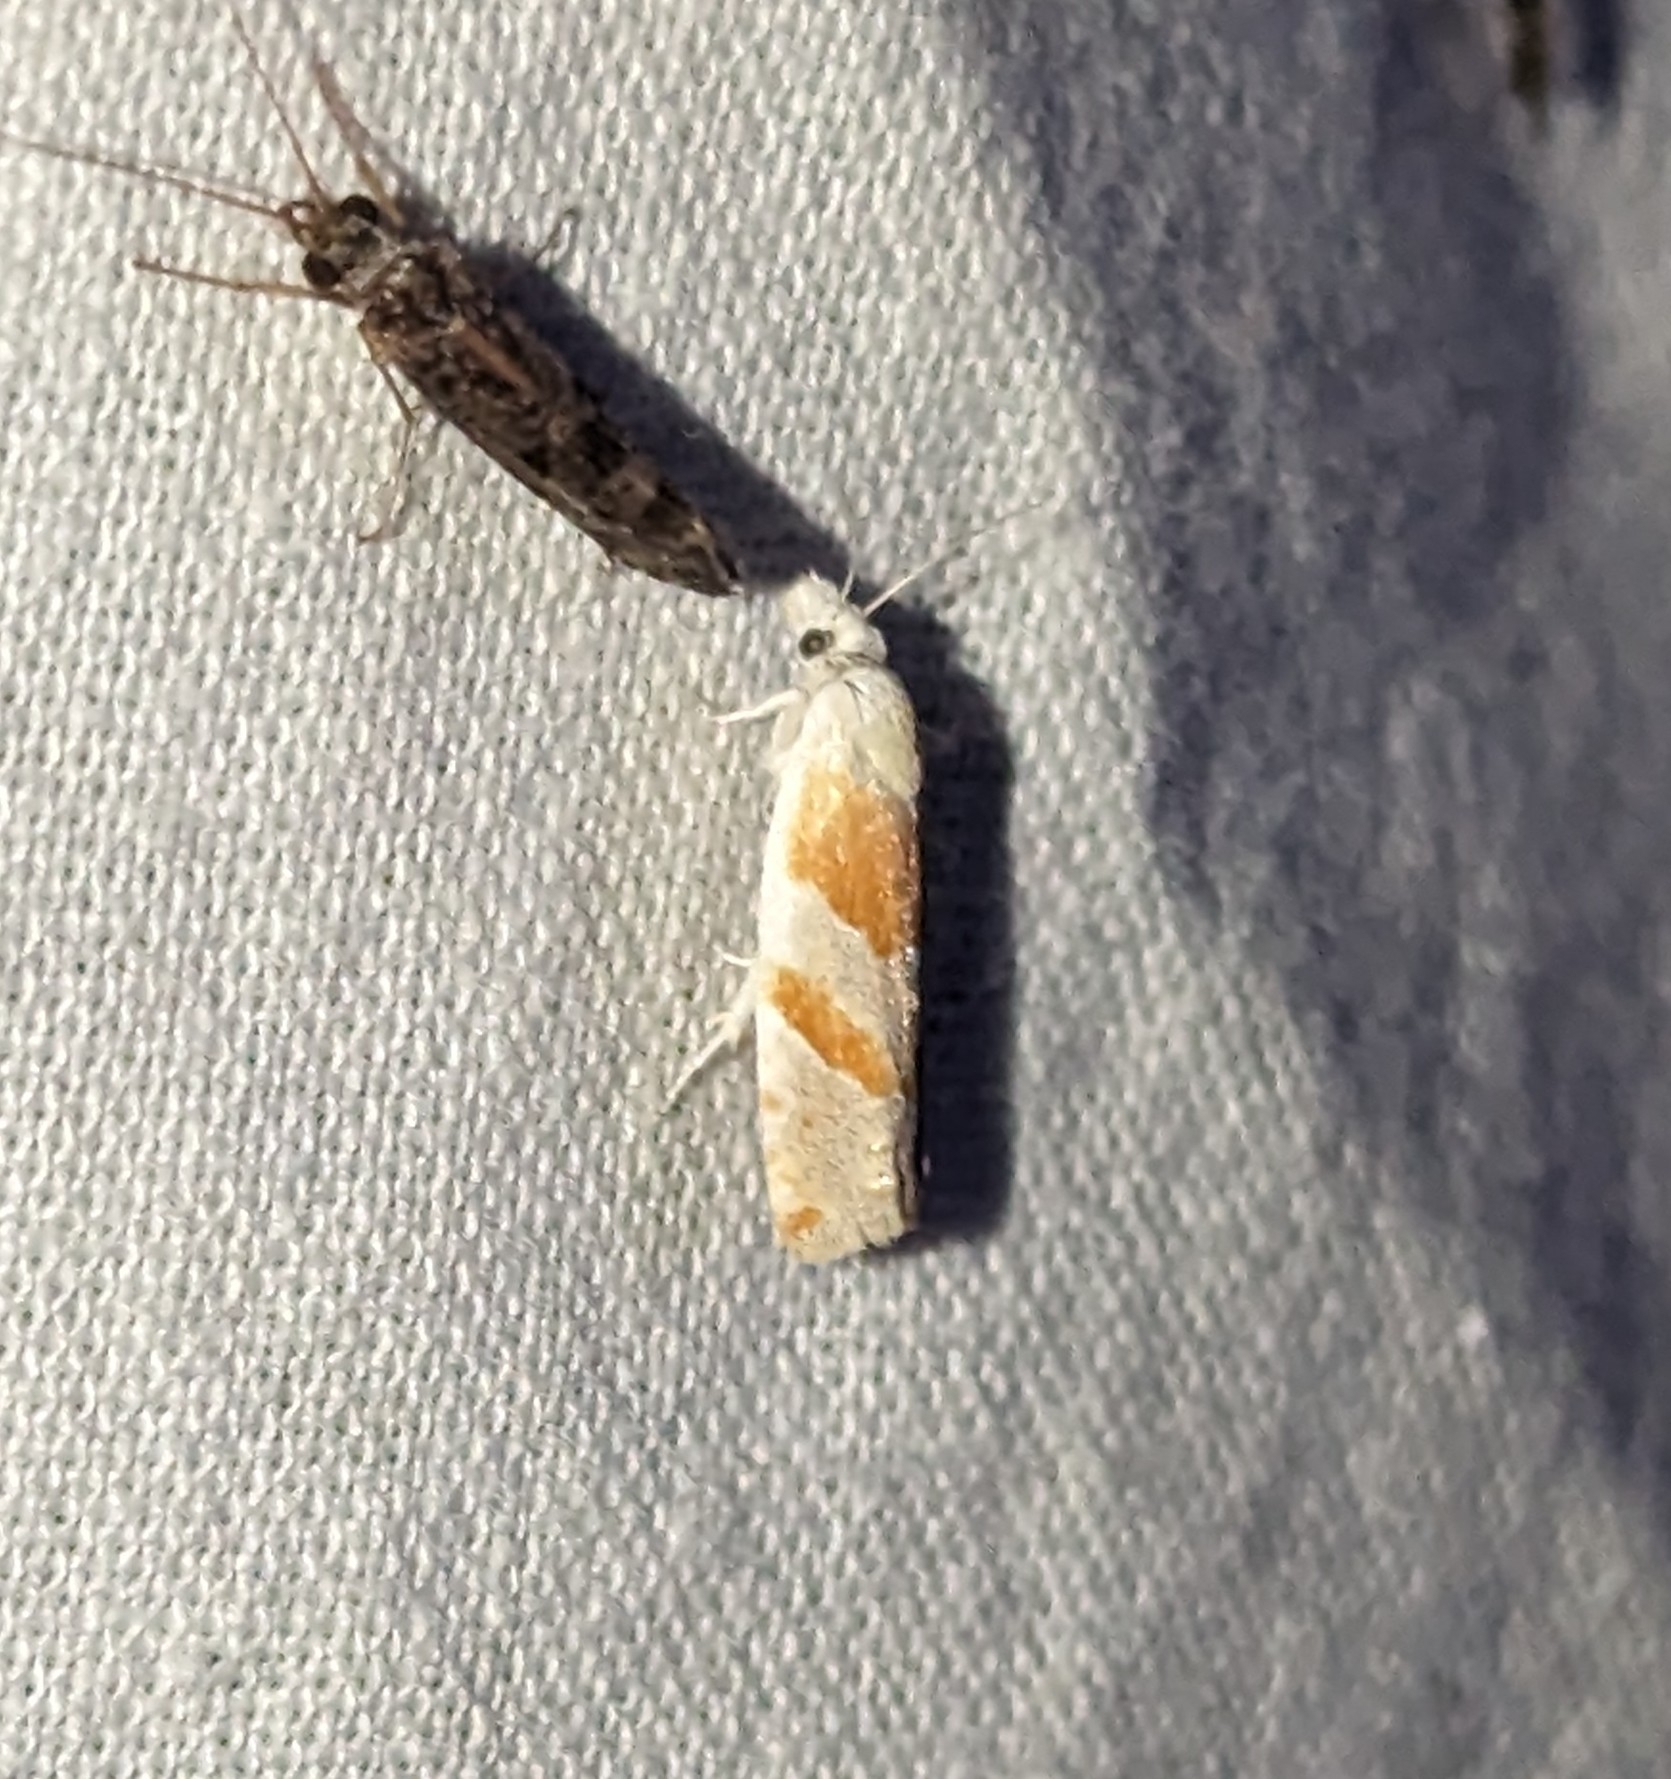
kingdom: Animalia
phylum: Arthropoda
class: Insecta
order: Lepidoptera
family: Tortricidae
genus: Eucosma
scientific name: Eucosma setonana
